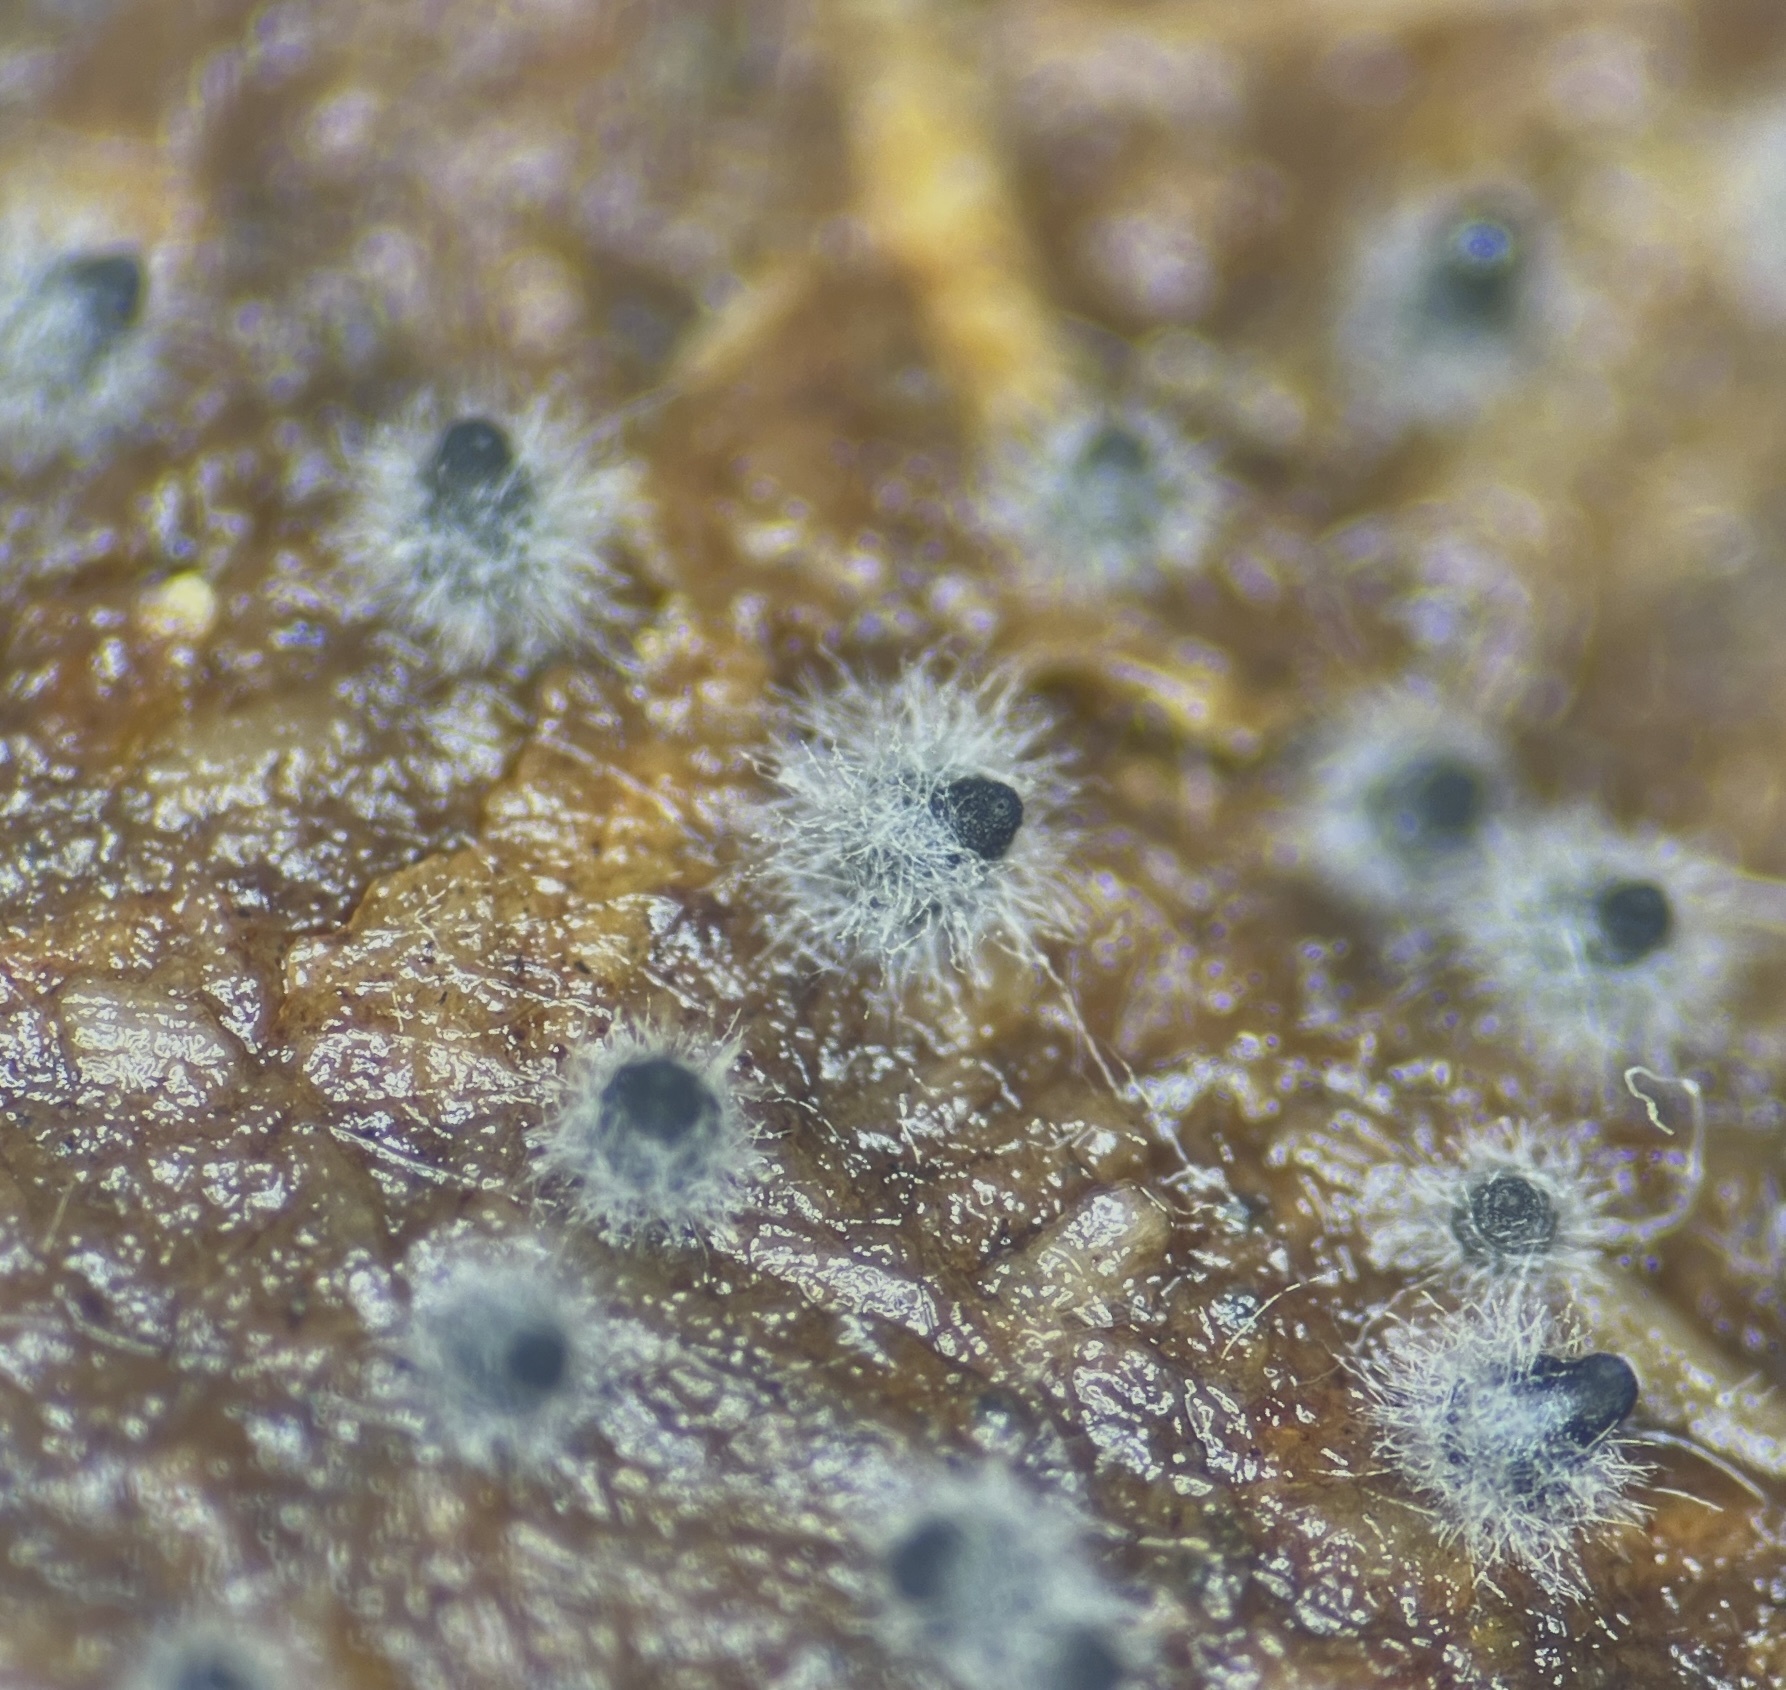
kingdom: Fungi
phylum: Ascomycota
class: Sordariomycetes
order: Sordariales
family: Sordariaceae
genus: Sordaria
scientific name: Sordaria fimicola
